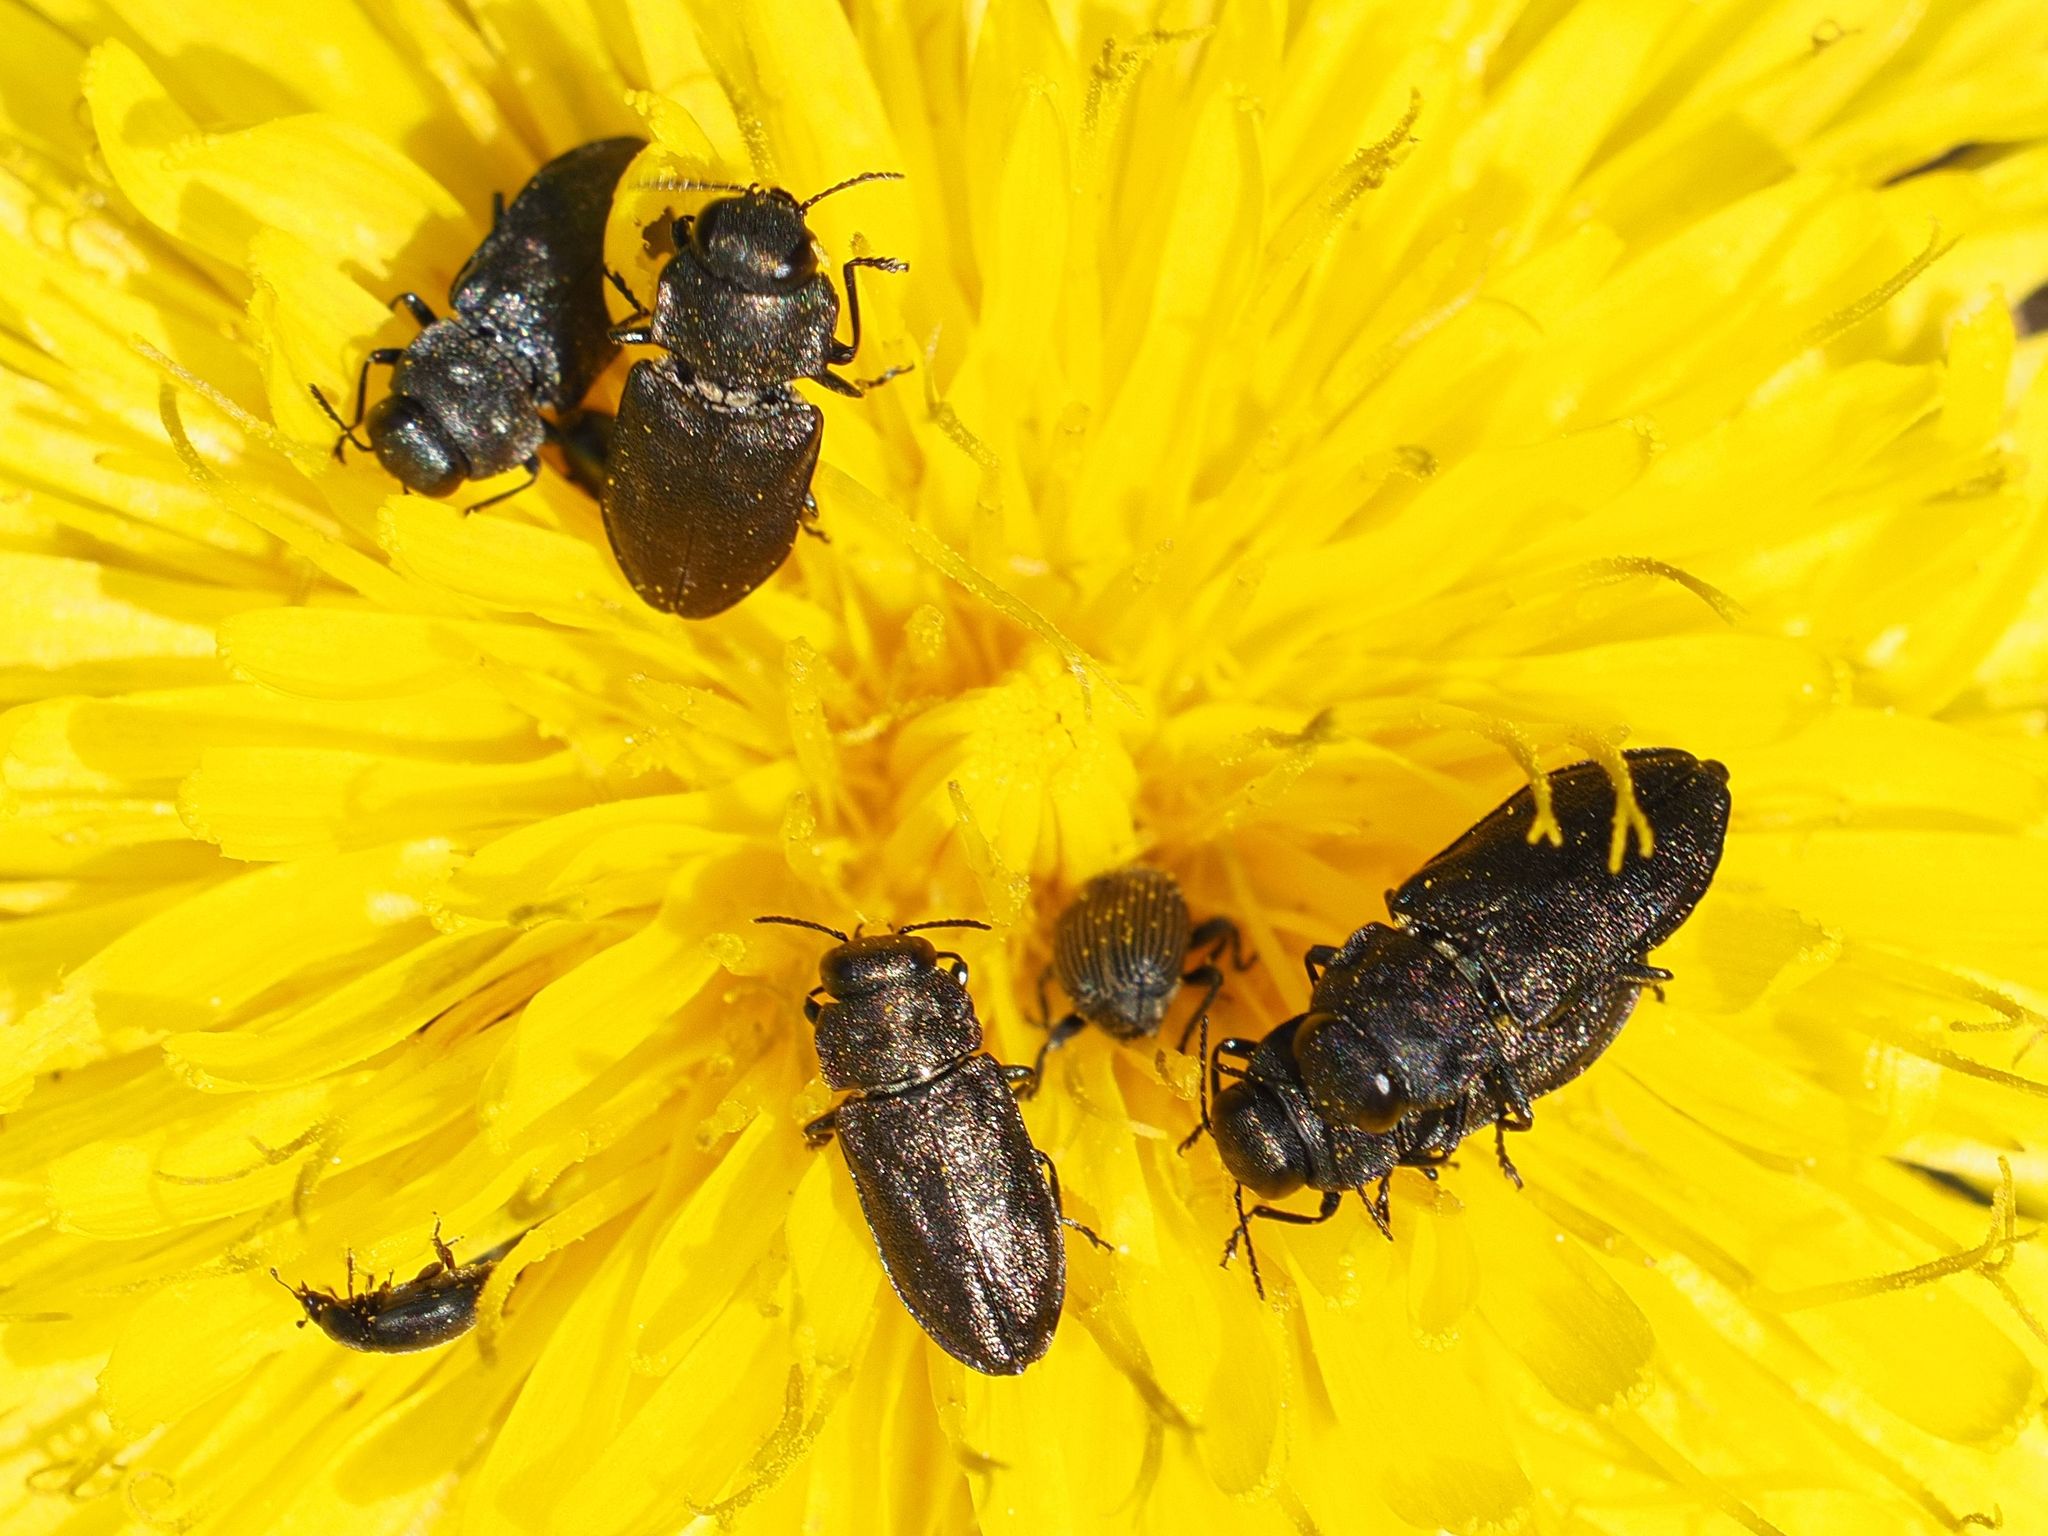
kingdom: Animalia
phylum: Arthropoda
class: Insecta
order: Coleoptera
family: Buprestidae
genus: Anthaxia
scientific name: Anthaxia quadripunctata
